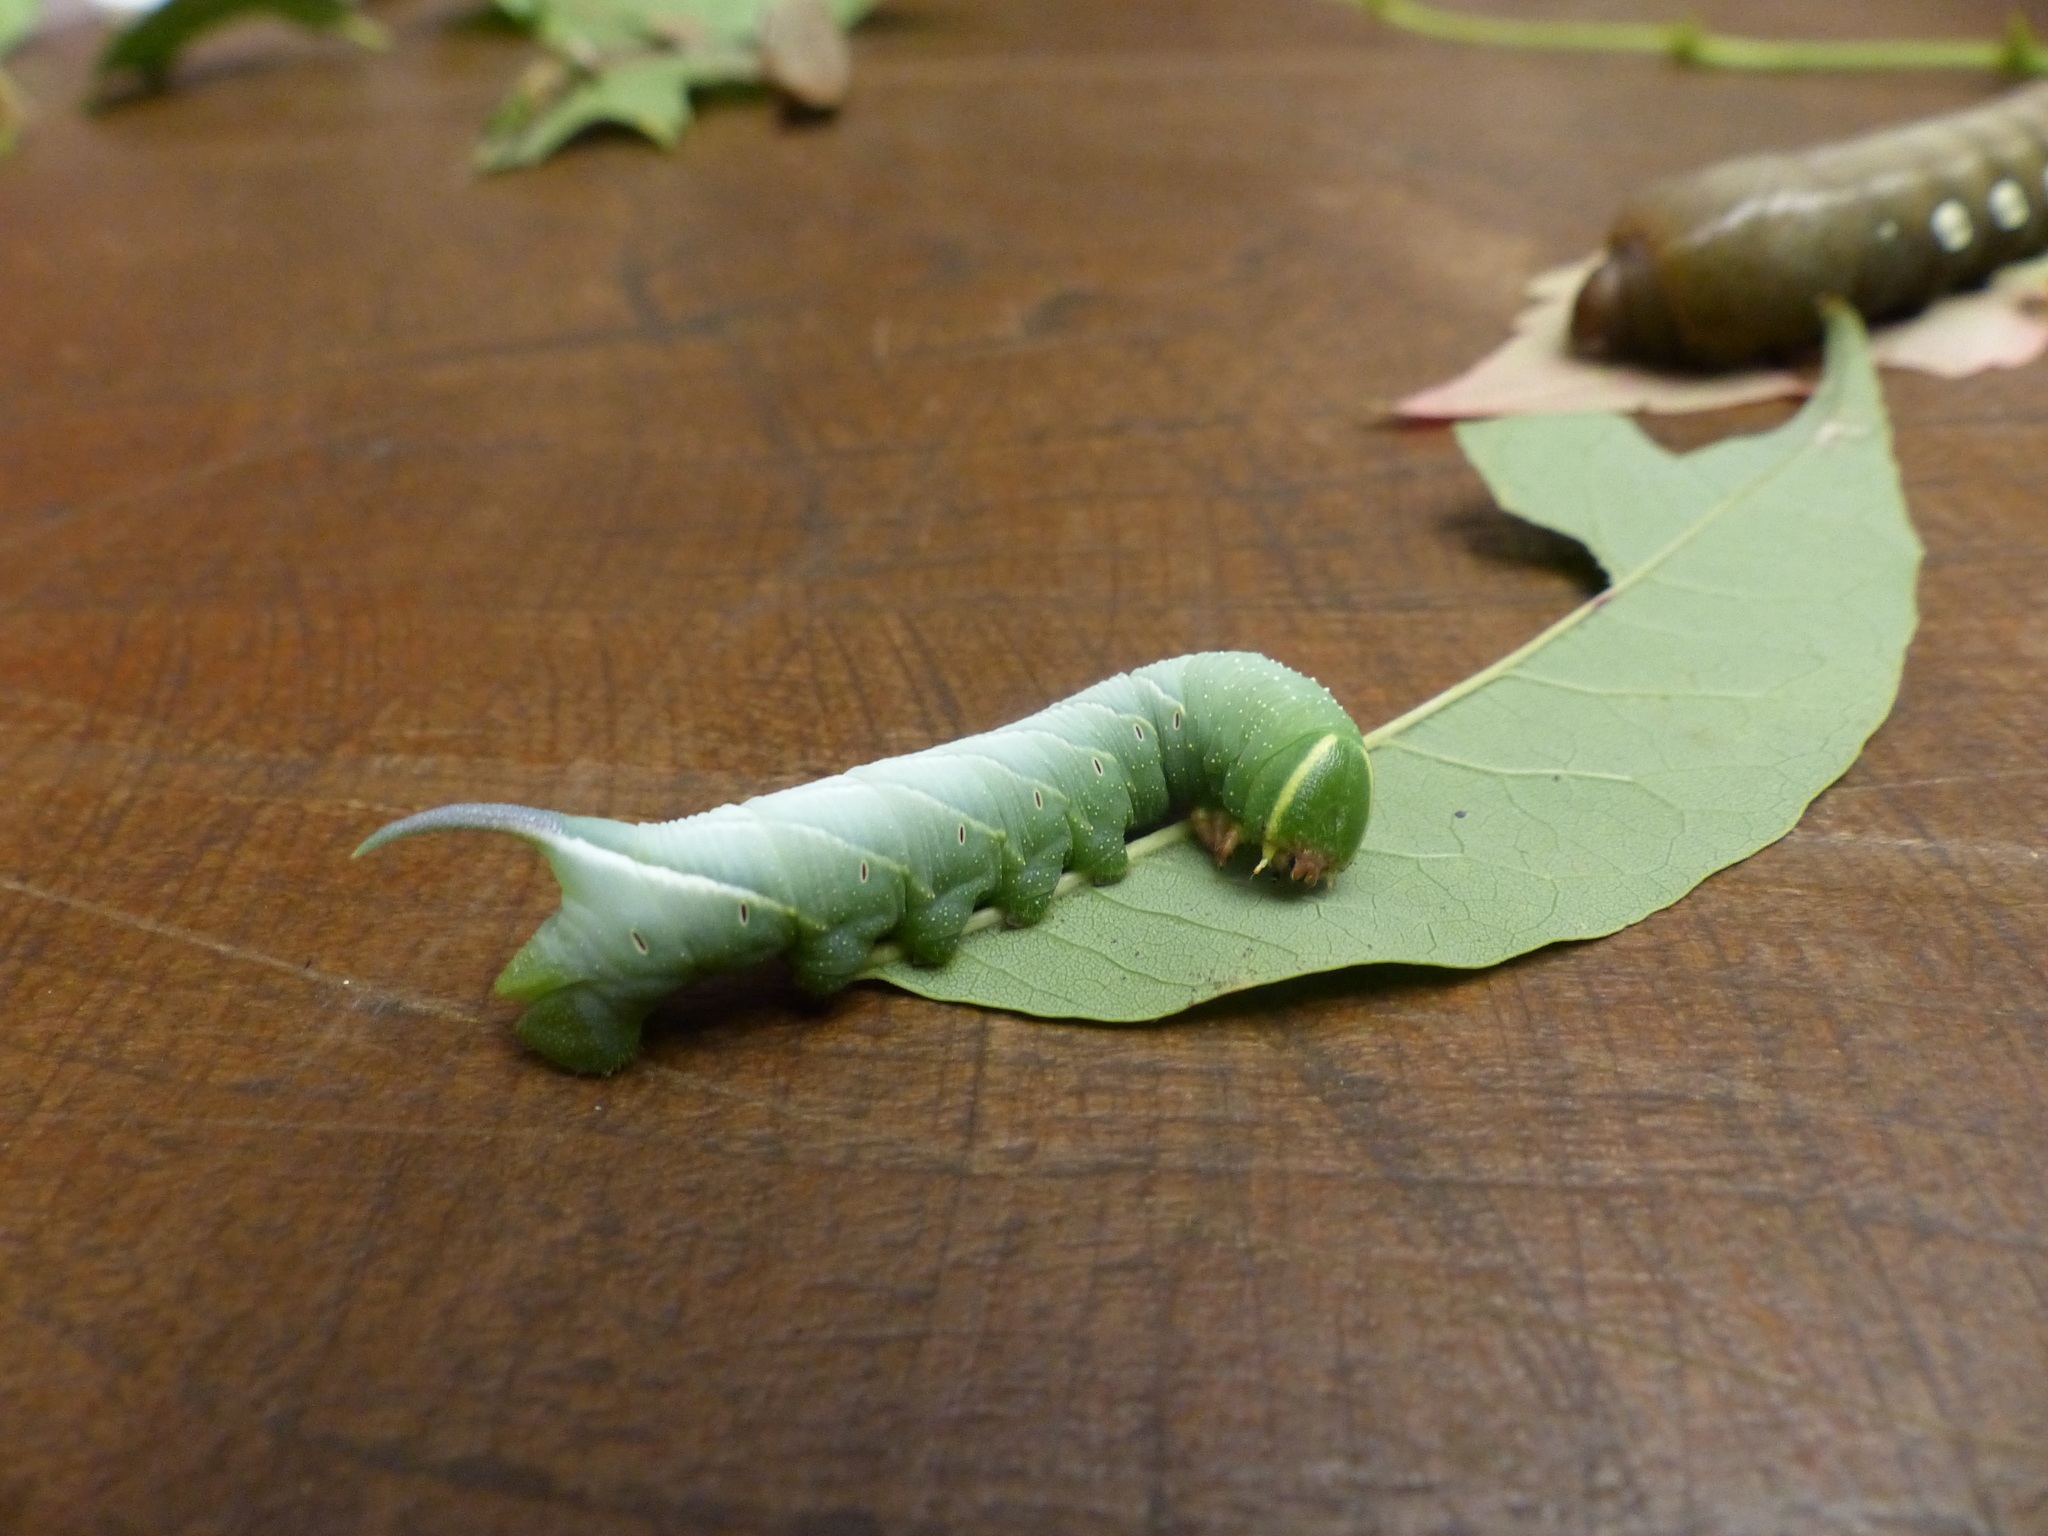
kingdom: Animalia
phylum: Arthropoda
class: Insecta
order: Lepidoptera
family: Sphingidae
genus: Sphinx
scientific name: Sphinx chersis
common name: Great ash sphinx
